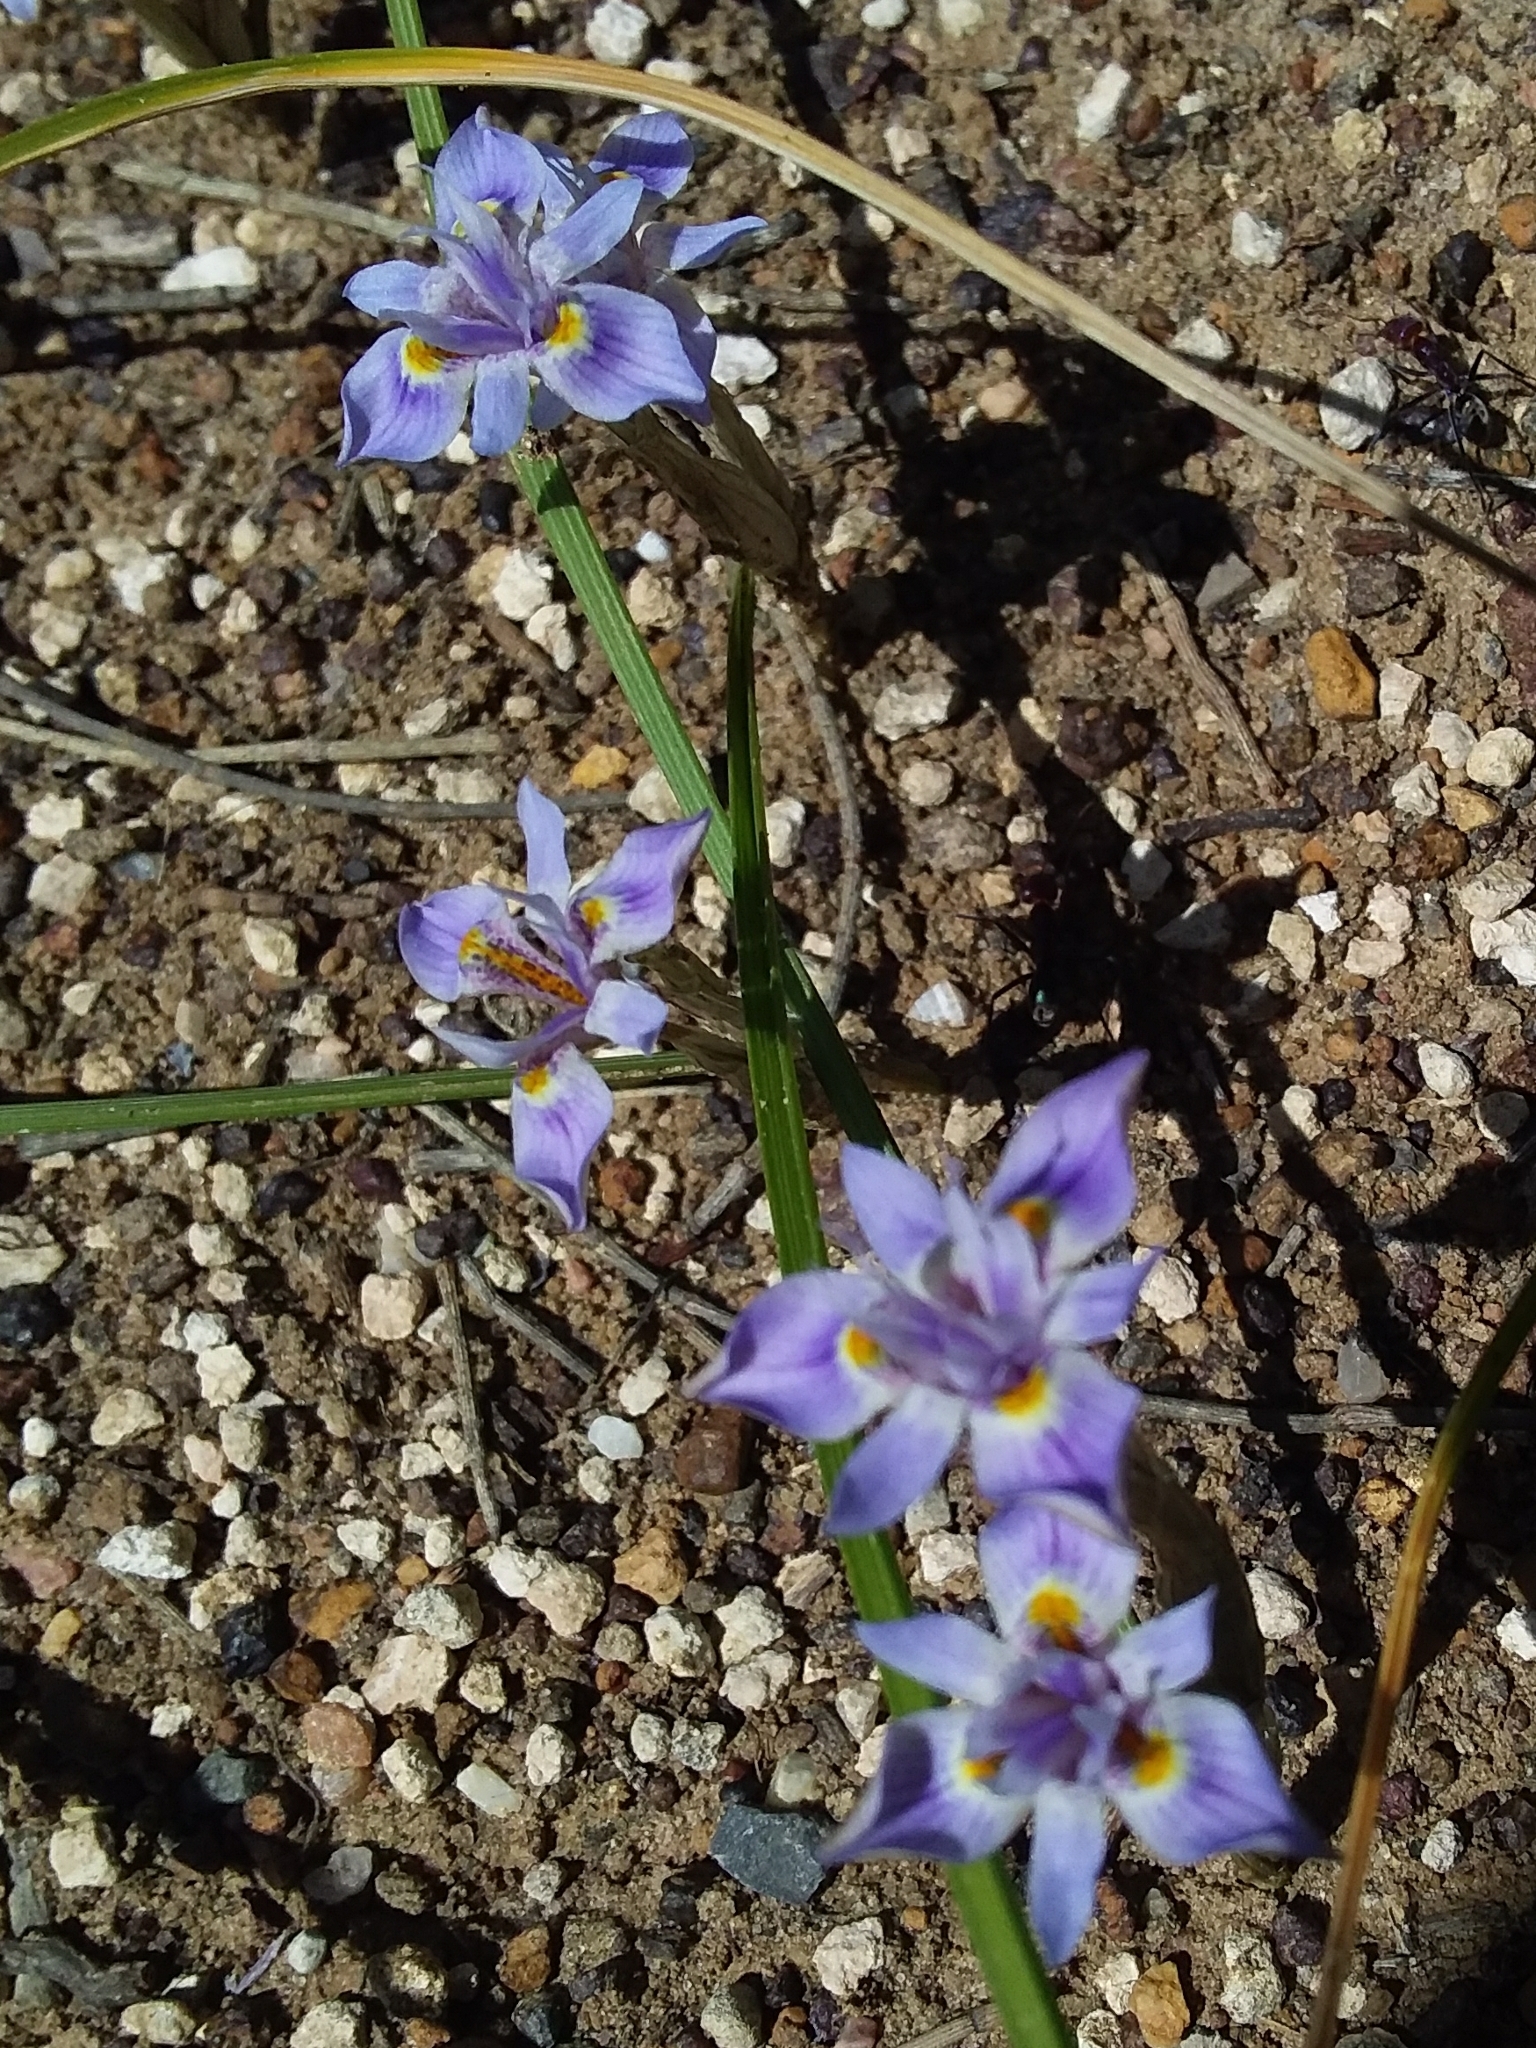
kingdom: Plantae
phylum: Tracheophyta
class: Liliopsida
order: Asparagales
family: Iridaceae
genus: Moraea
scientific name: Moraea setifolia
